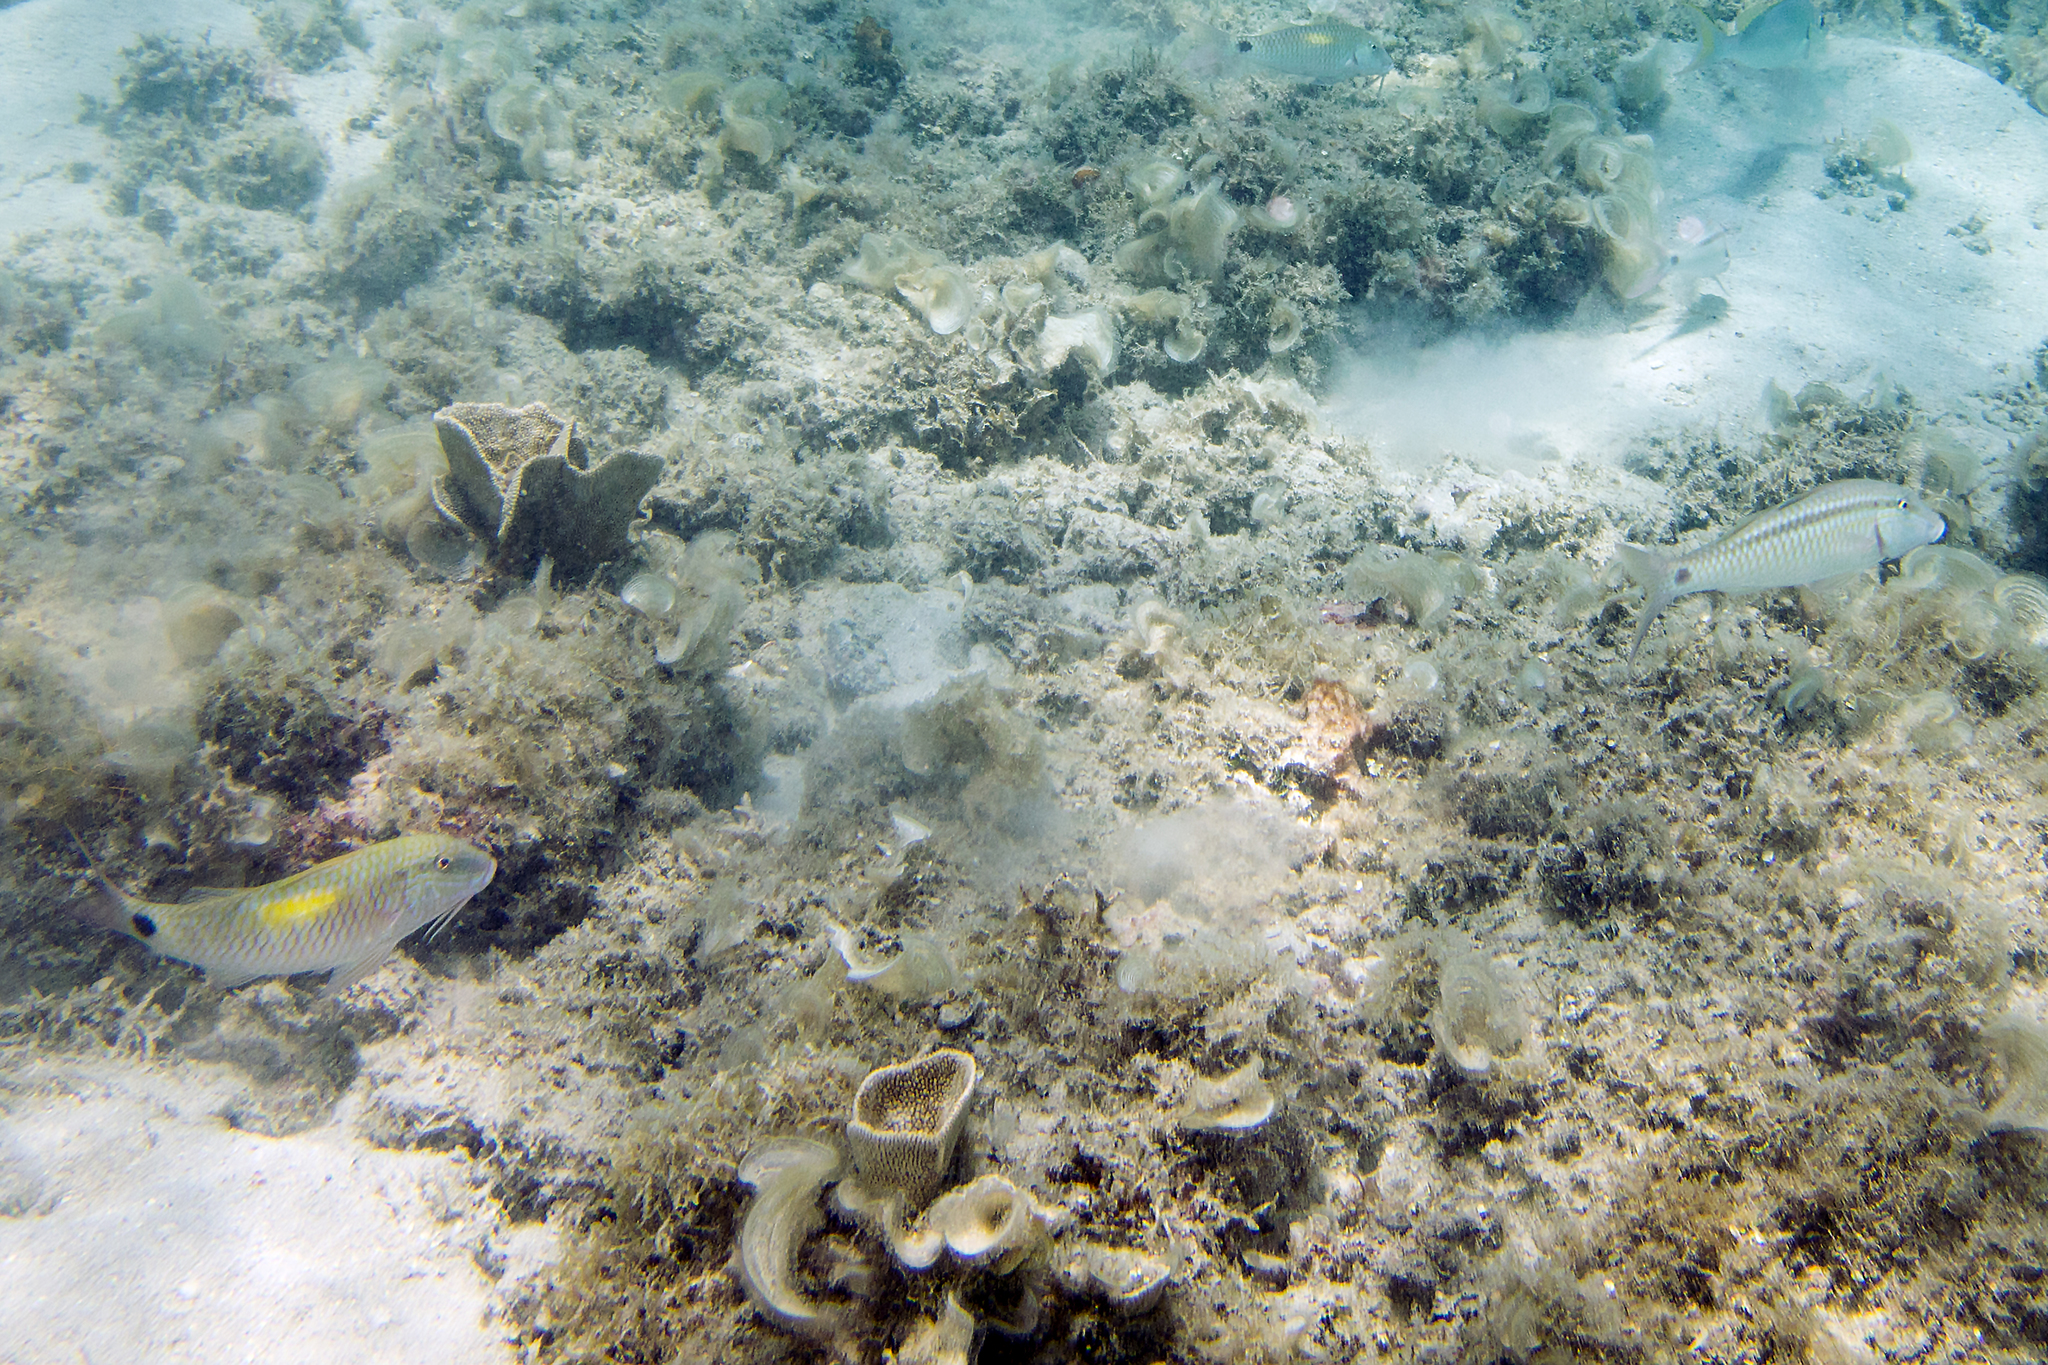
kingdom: Animalia
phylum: Chordata
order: Perciformes
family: Mullidae
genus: Parupeneus
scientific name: Parupeneus indicus
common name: Indian goatfish
